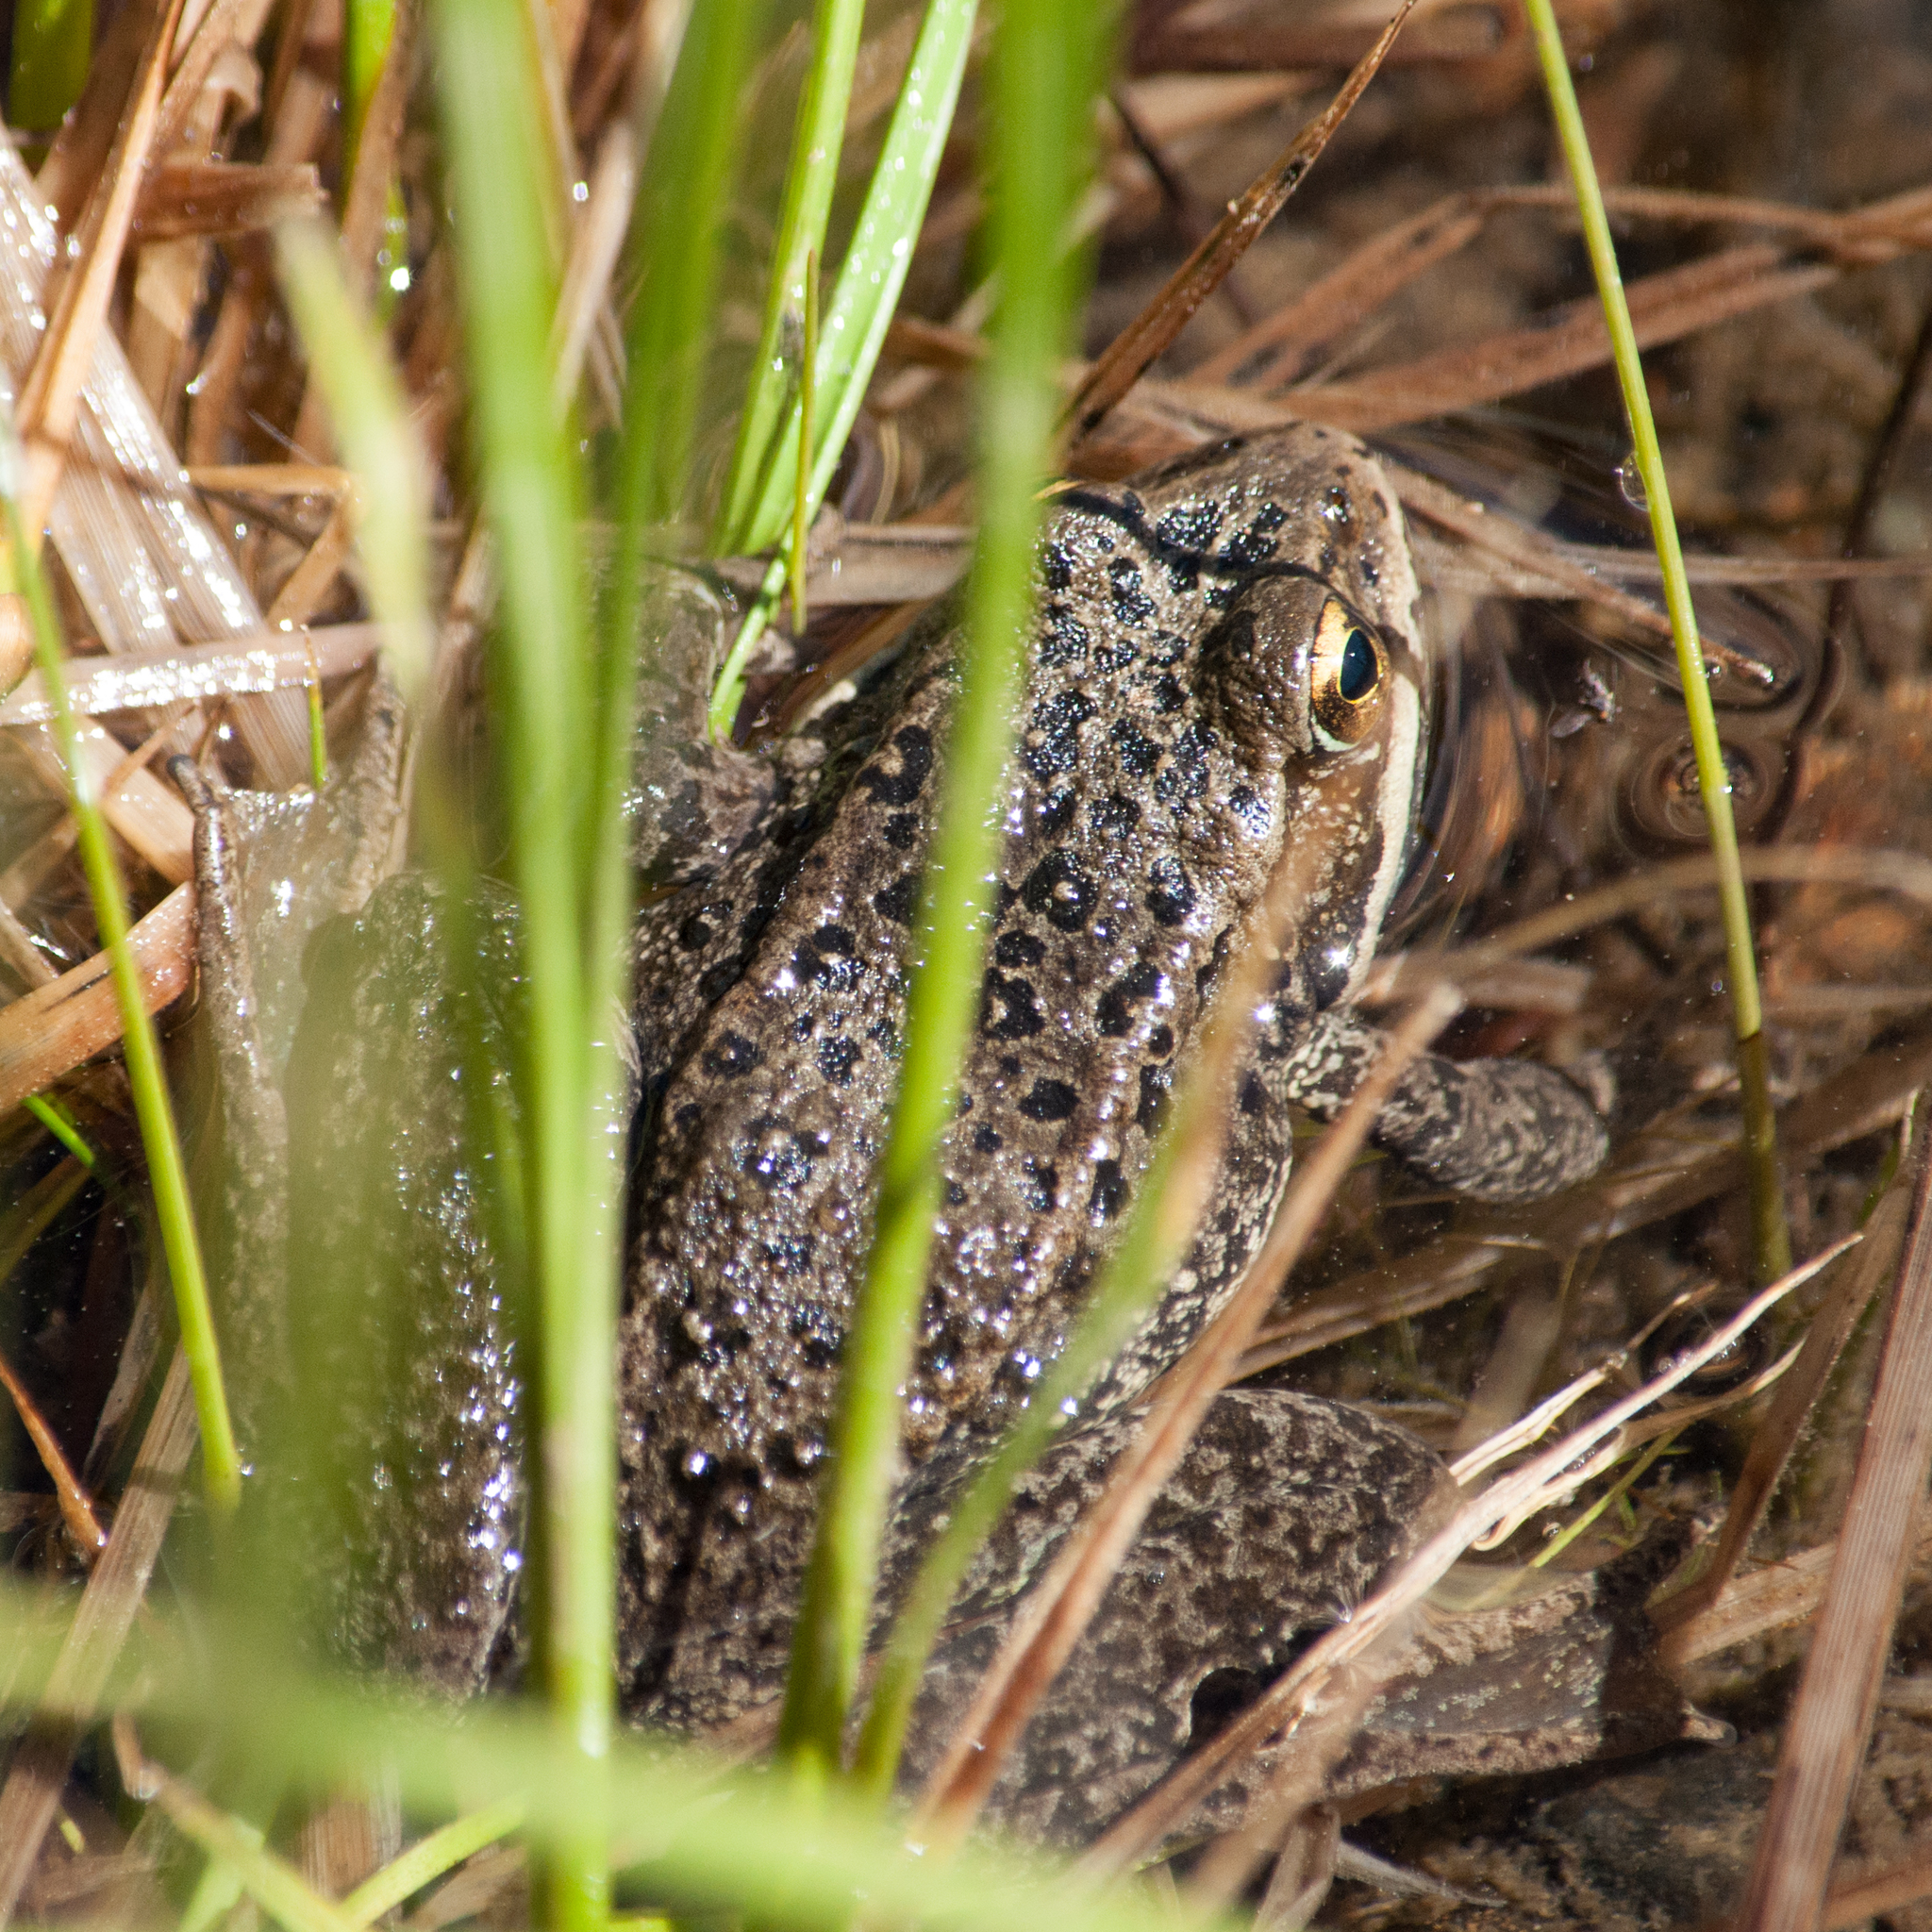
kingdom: Animalia
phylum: Chordata
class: Amphibia
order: Anura
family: Ranidae
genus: Rana
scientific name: Rana cascadae
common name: Cascades frog
